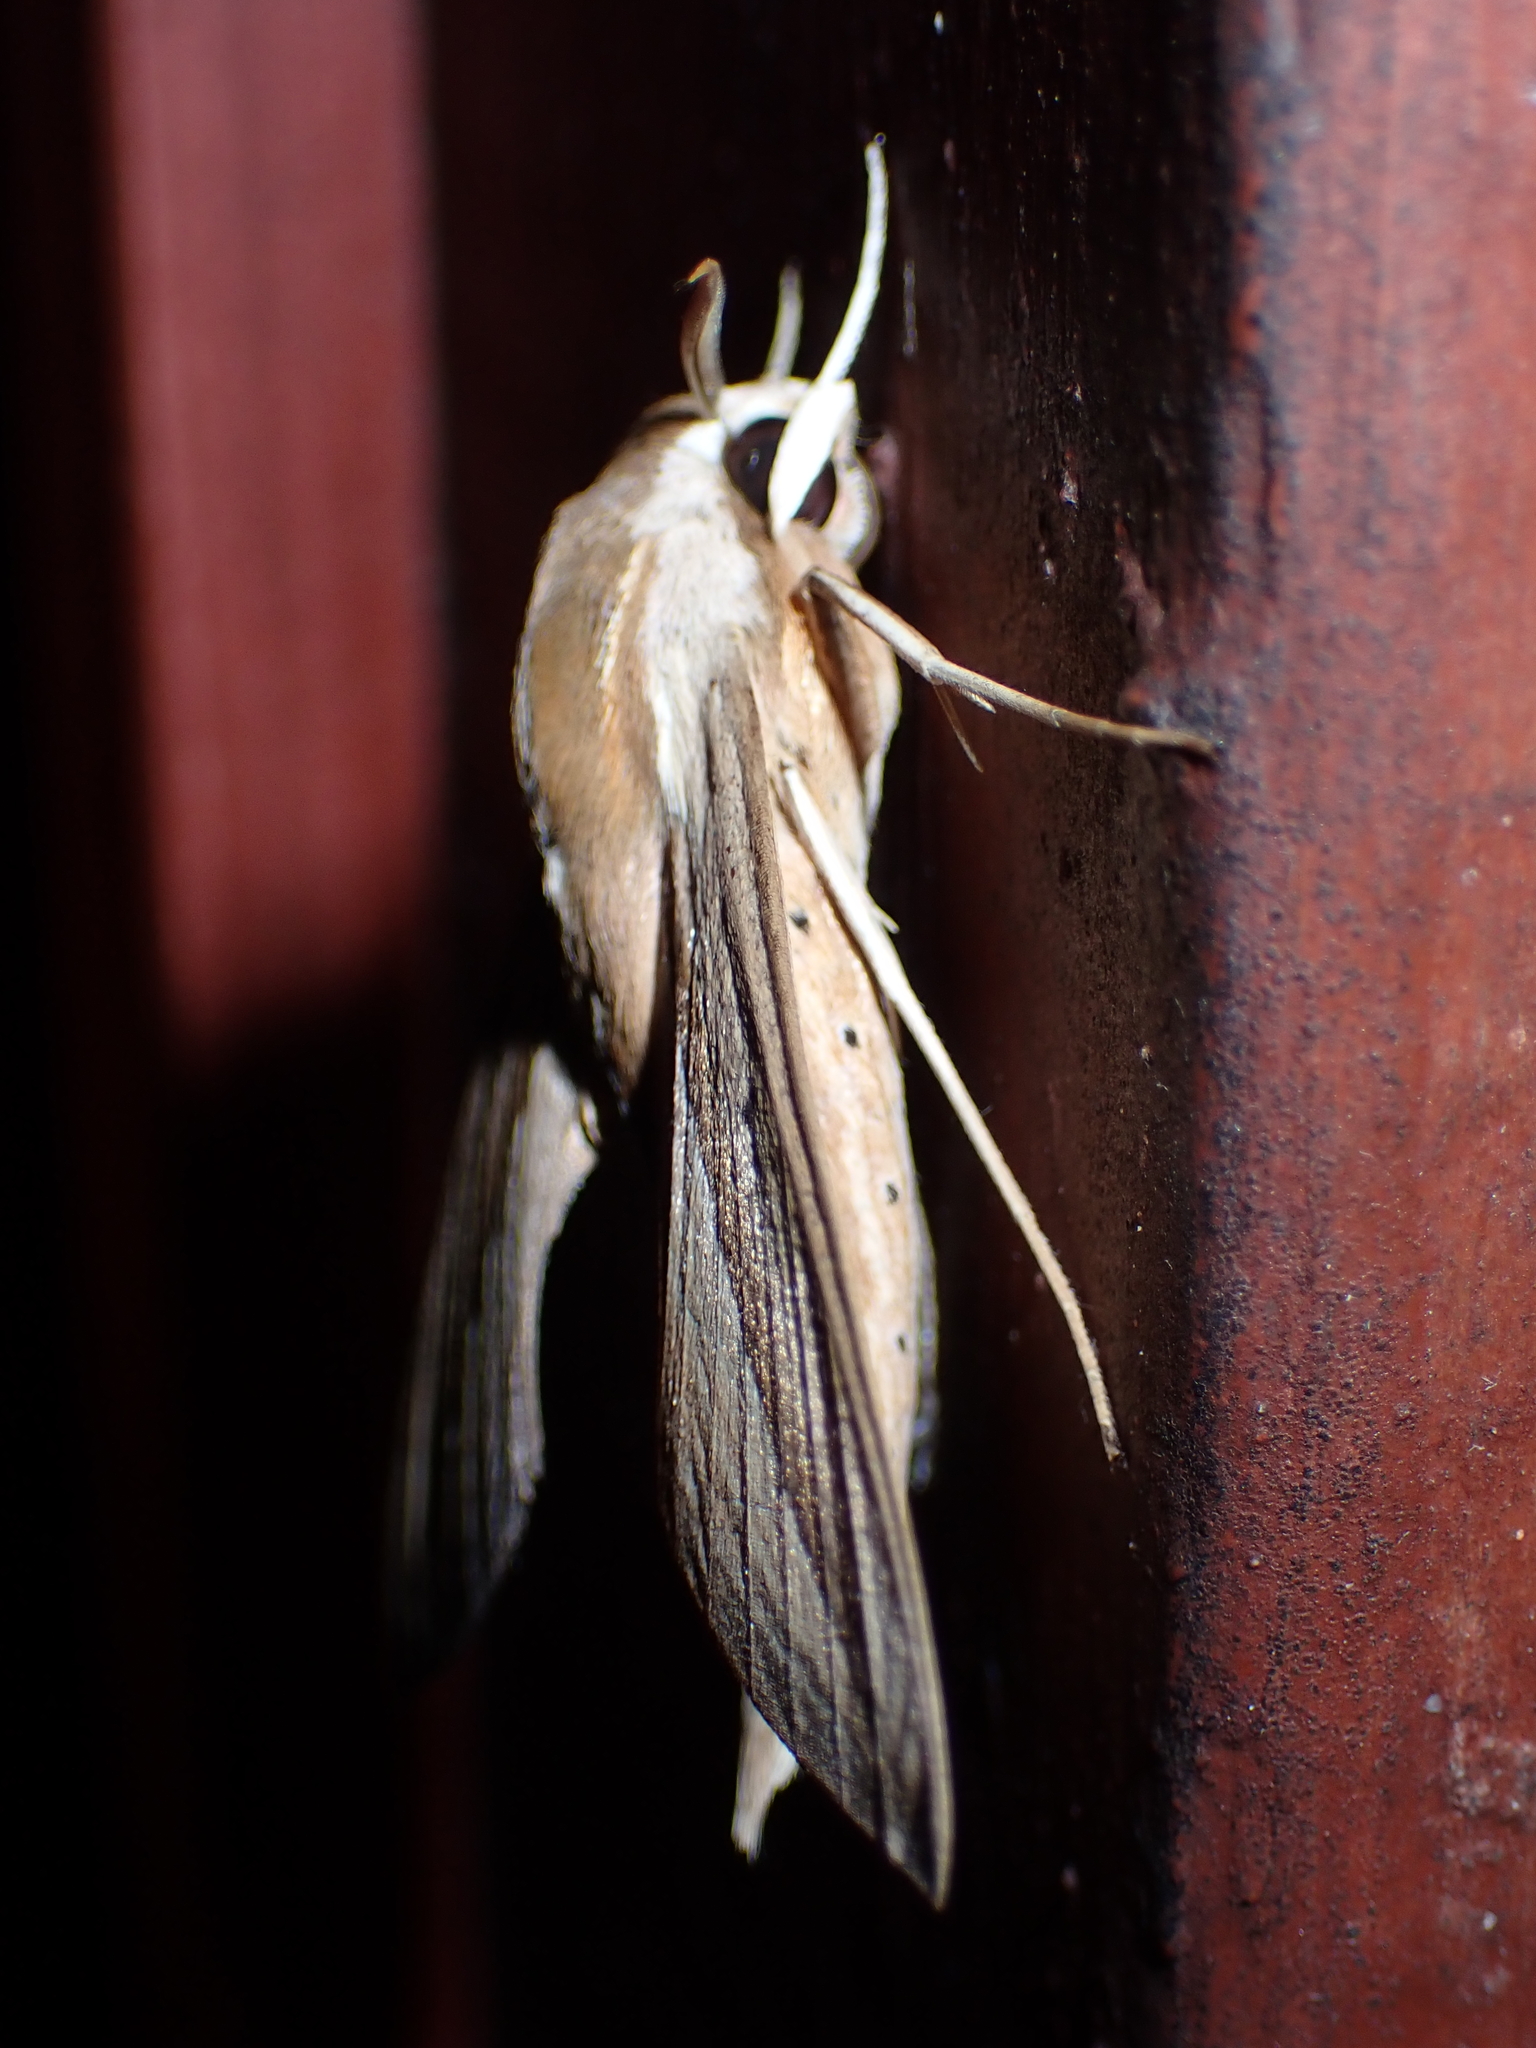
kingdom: Animalia
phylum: Arthropoda
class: Insecta
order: Lepidoptera
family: Sphingidae
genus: Theretra
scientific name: Theretra silhetensis
